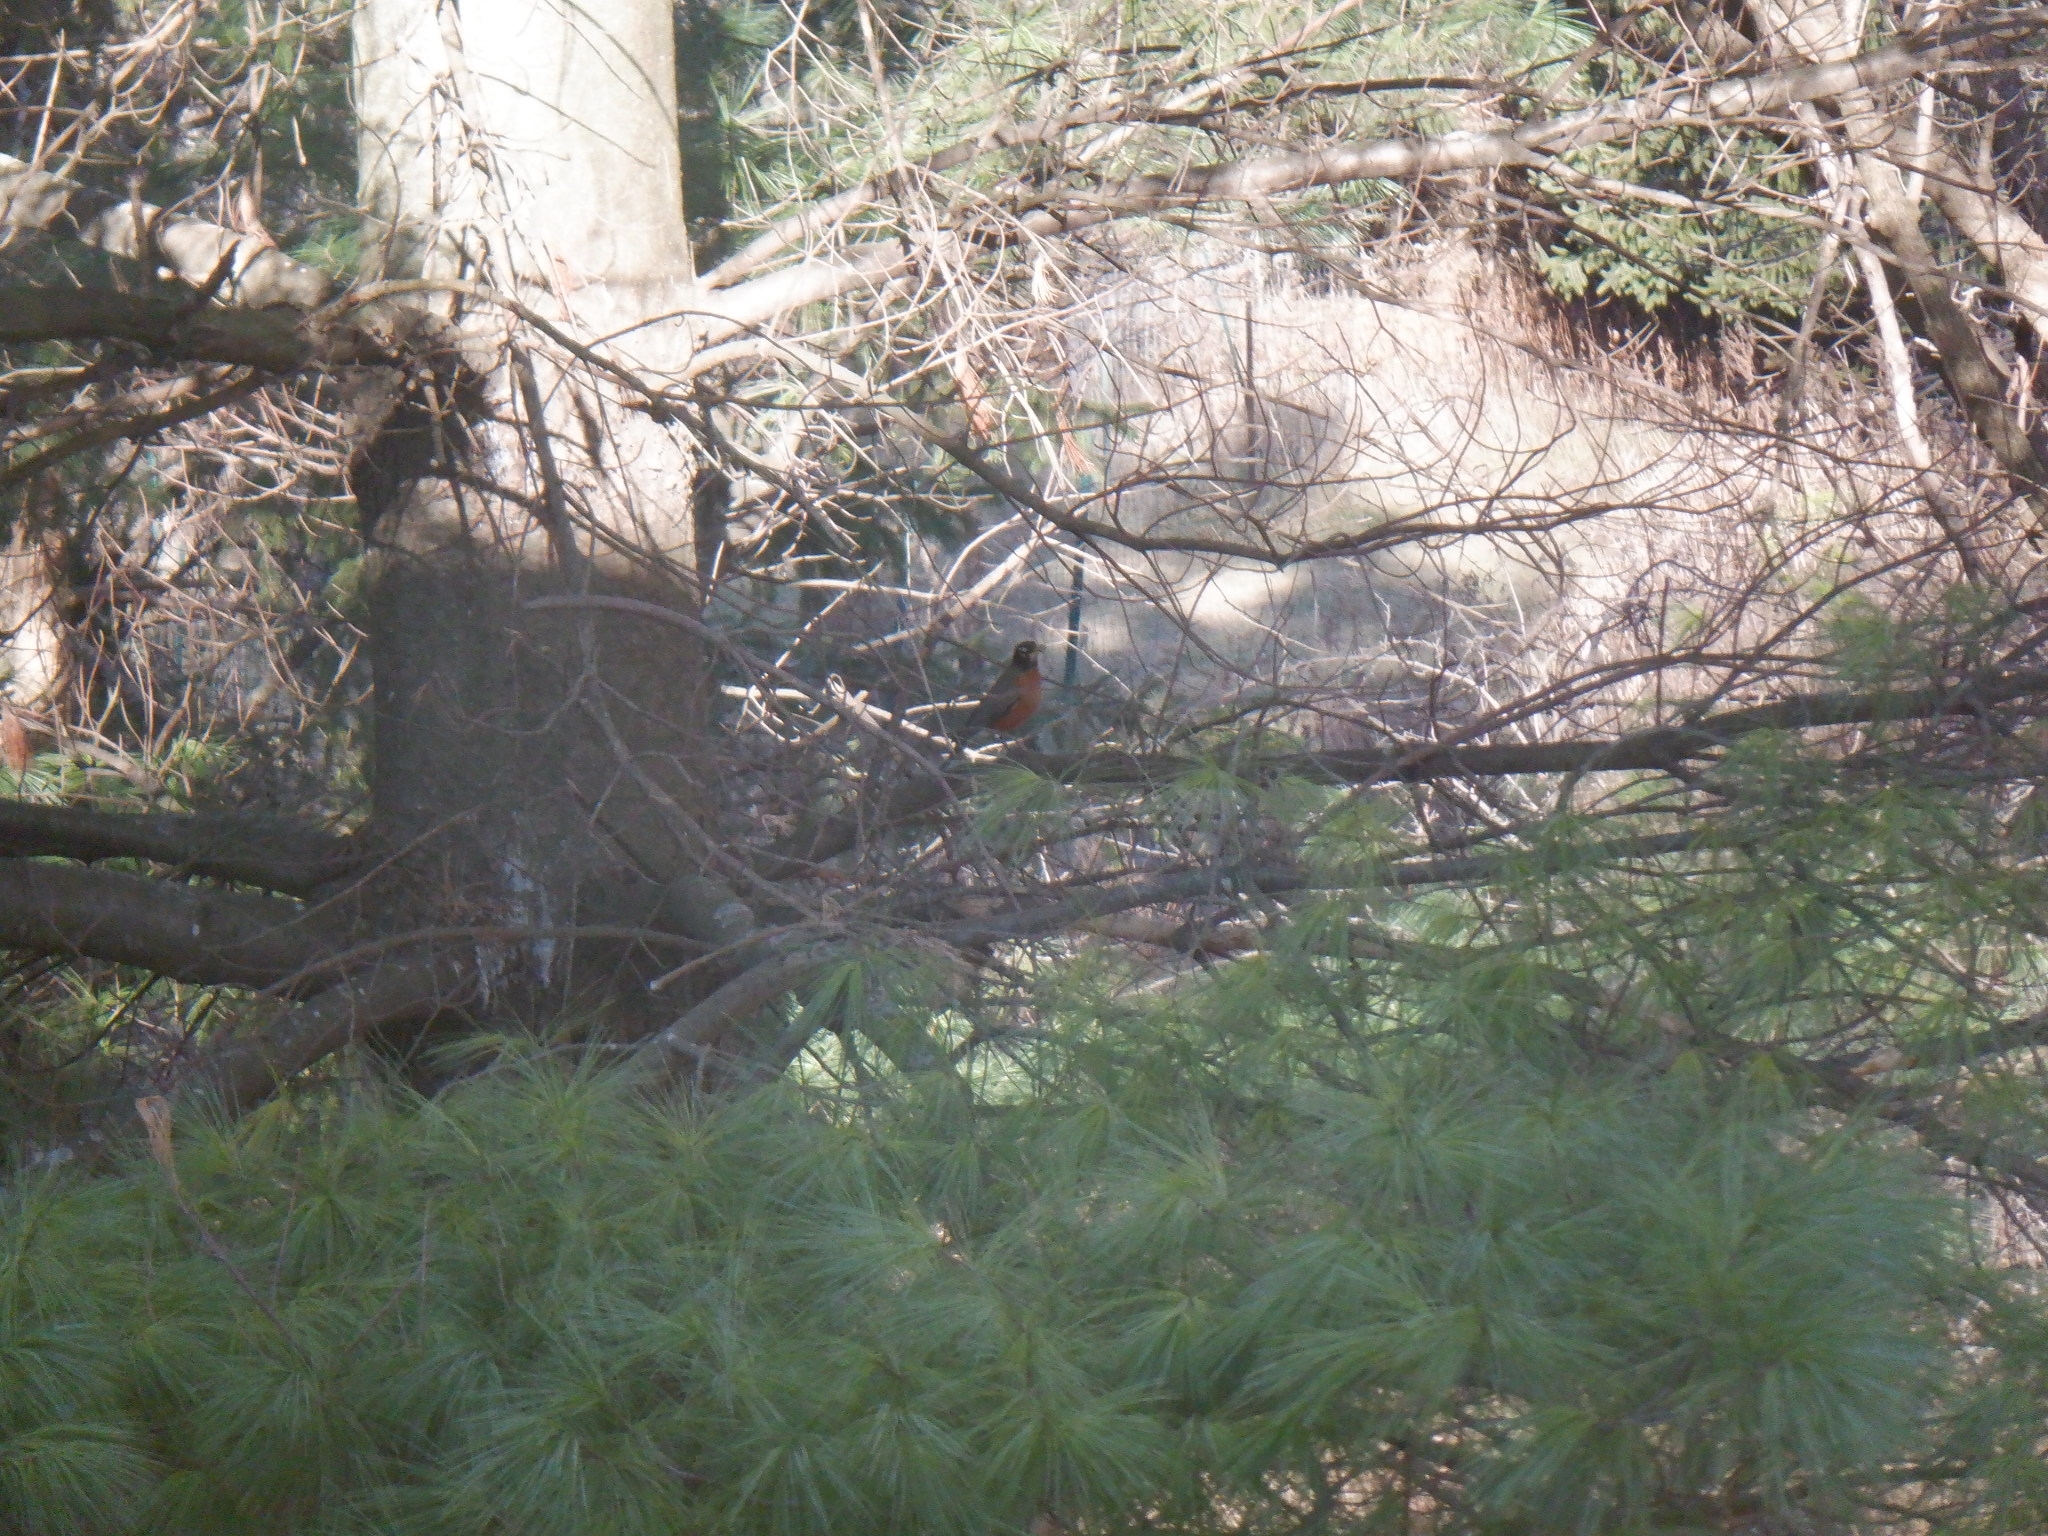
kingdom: Animalia
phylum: Chordata
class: Aves
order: Passeriformes
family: Turdidae
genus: Turdus
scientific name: Turdus migratorius
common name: American robin
